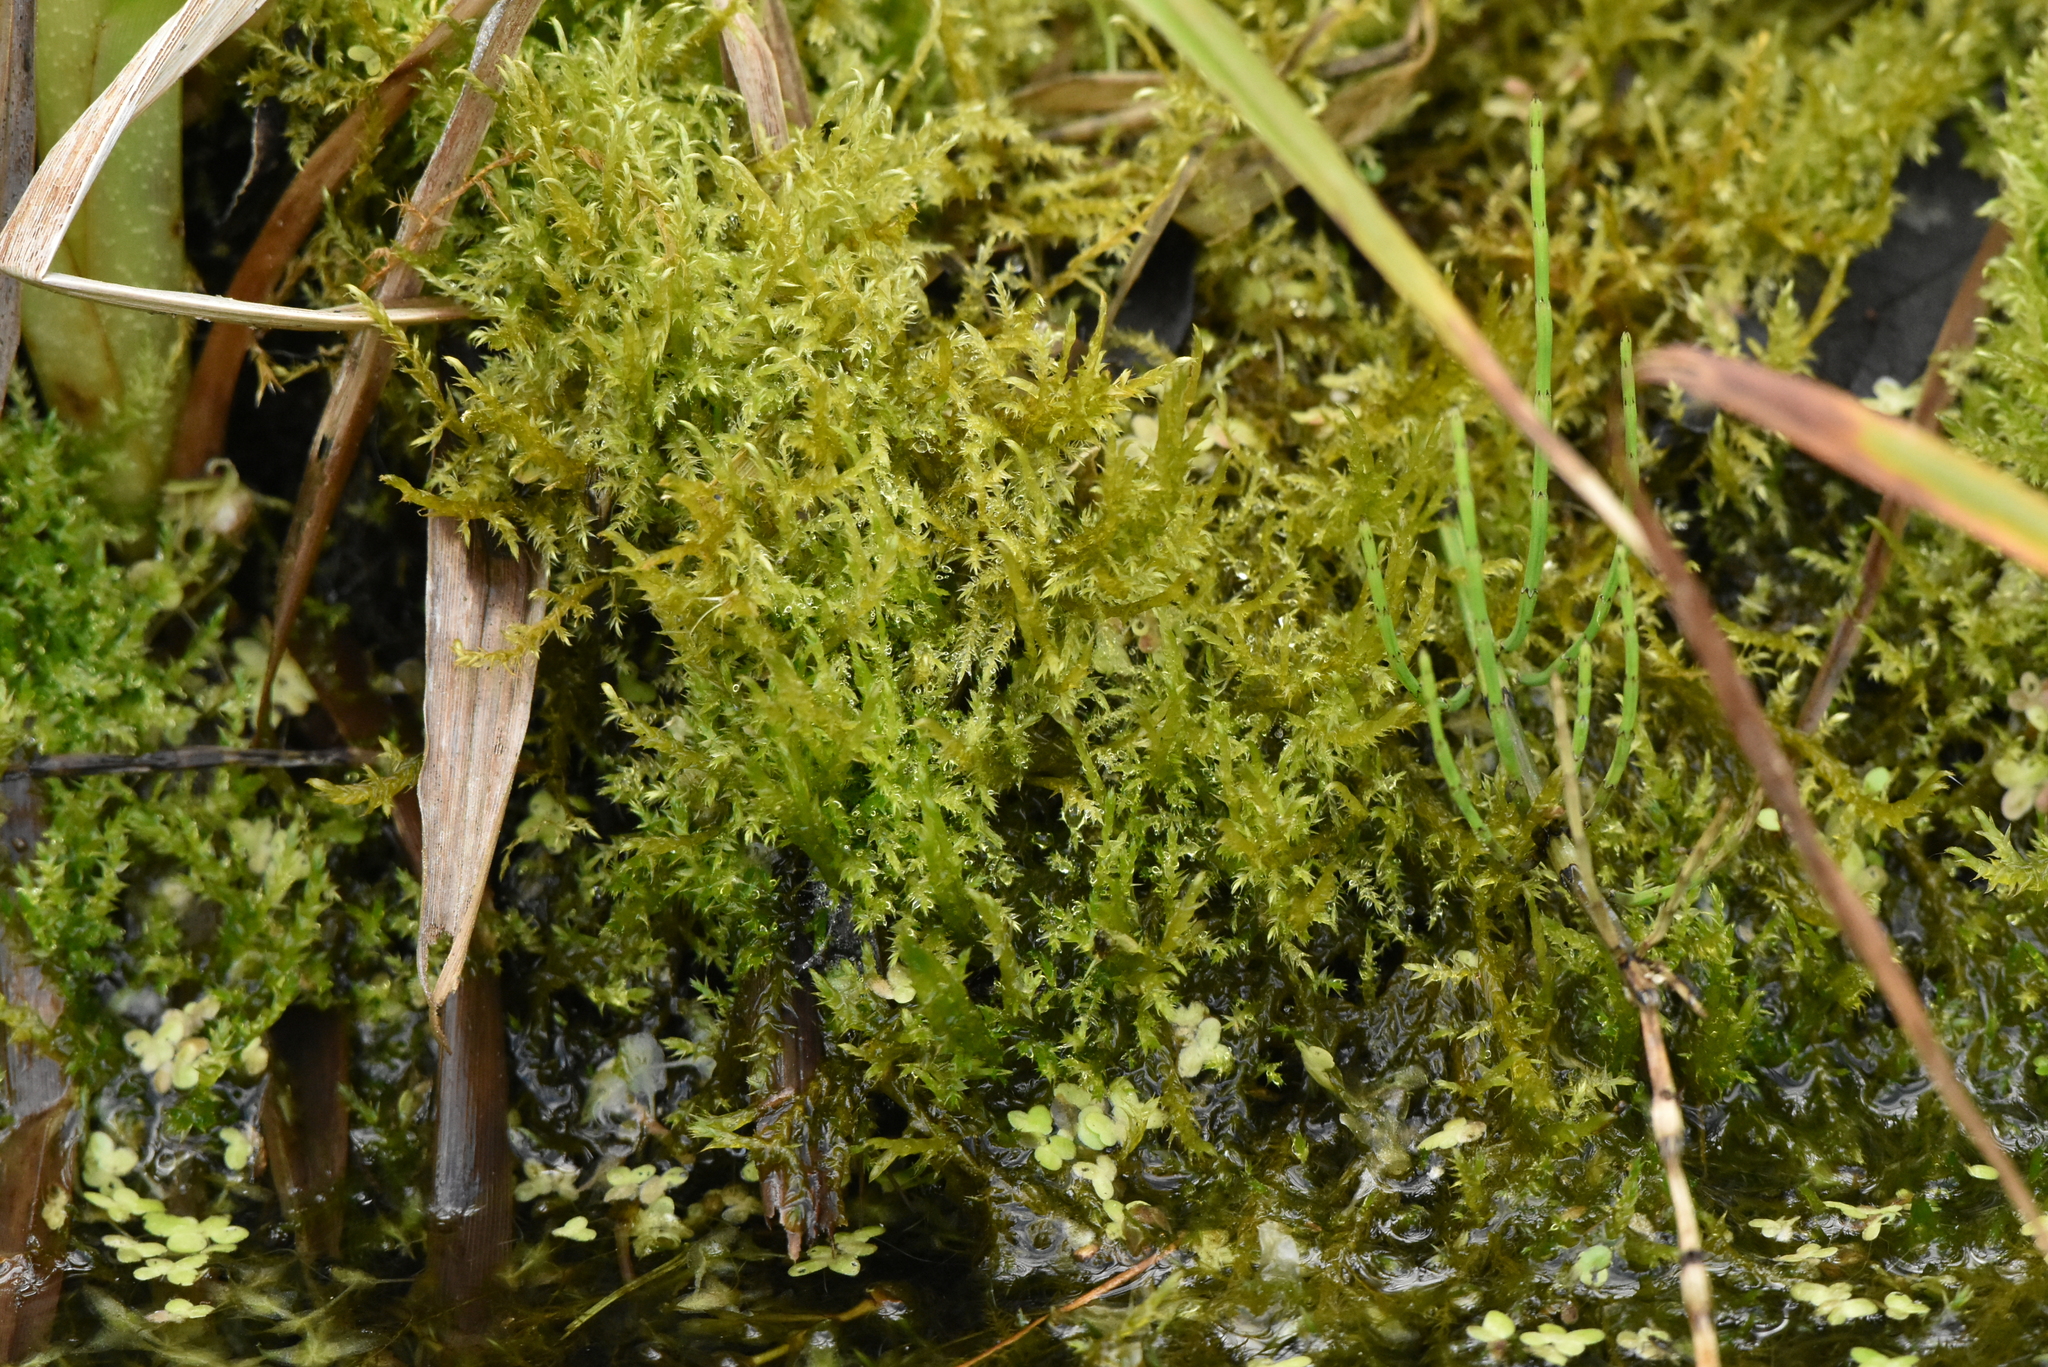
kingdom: Plantae
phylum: Bryophyta
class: Bryopsida
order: Hypnales
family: Amblystegiaceae
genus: Drepanocladus
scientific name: Drepanocladus aduncus
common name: Knieff's hook moss
